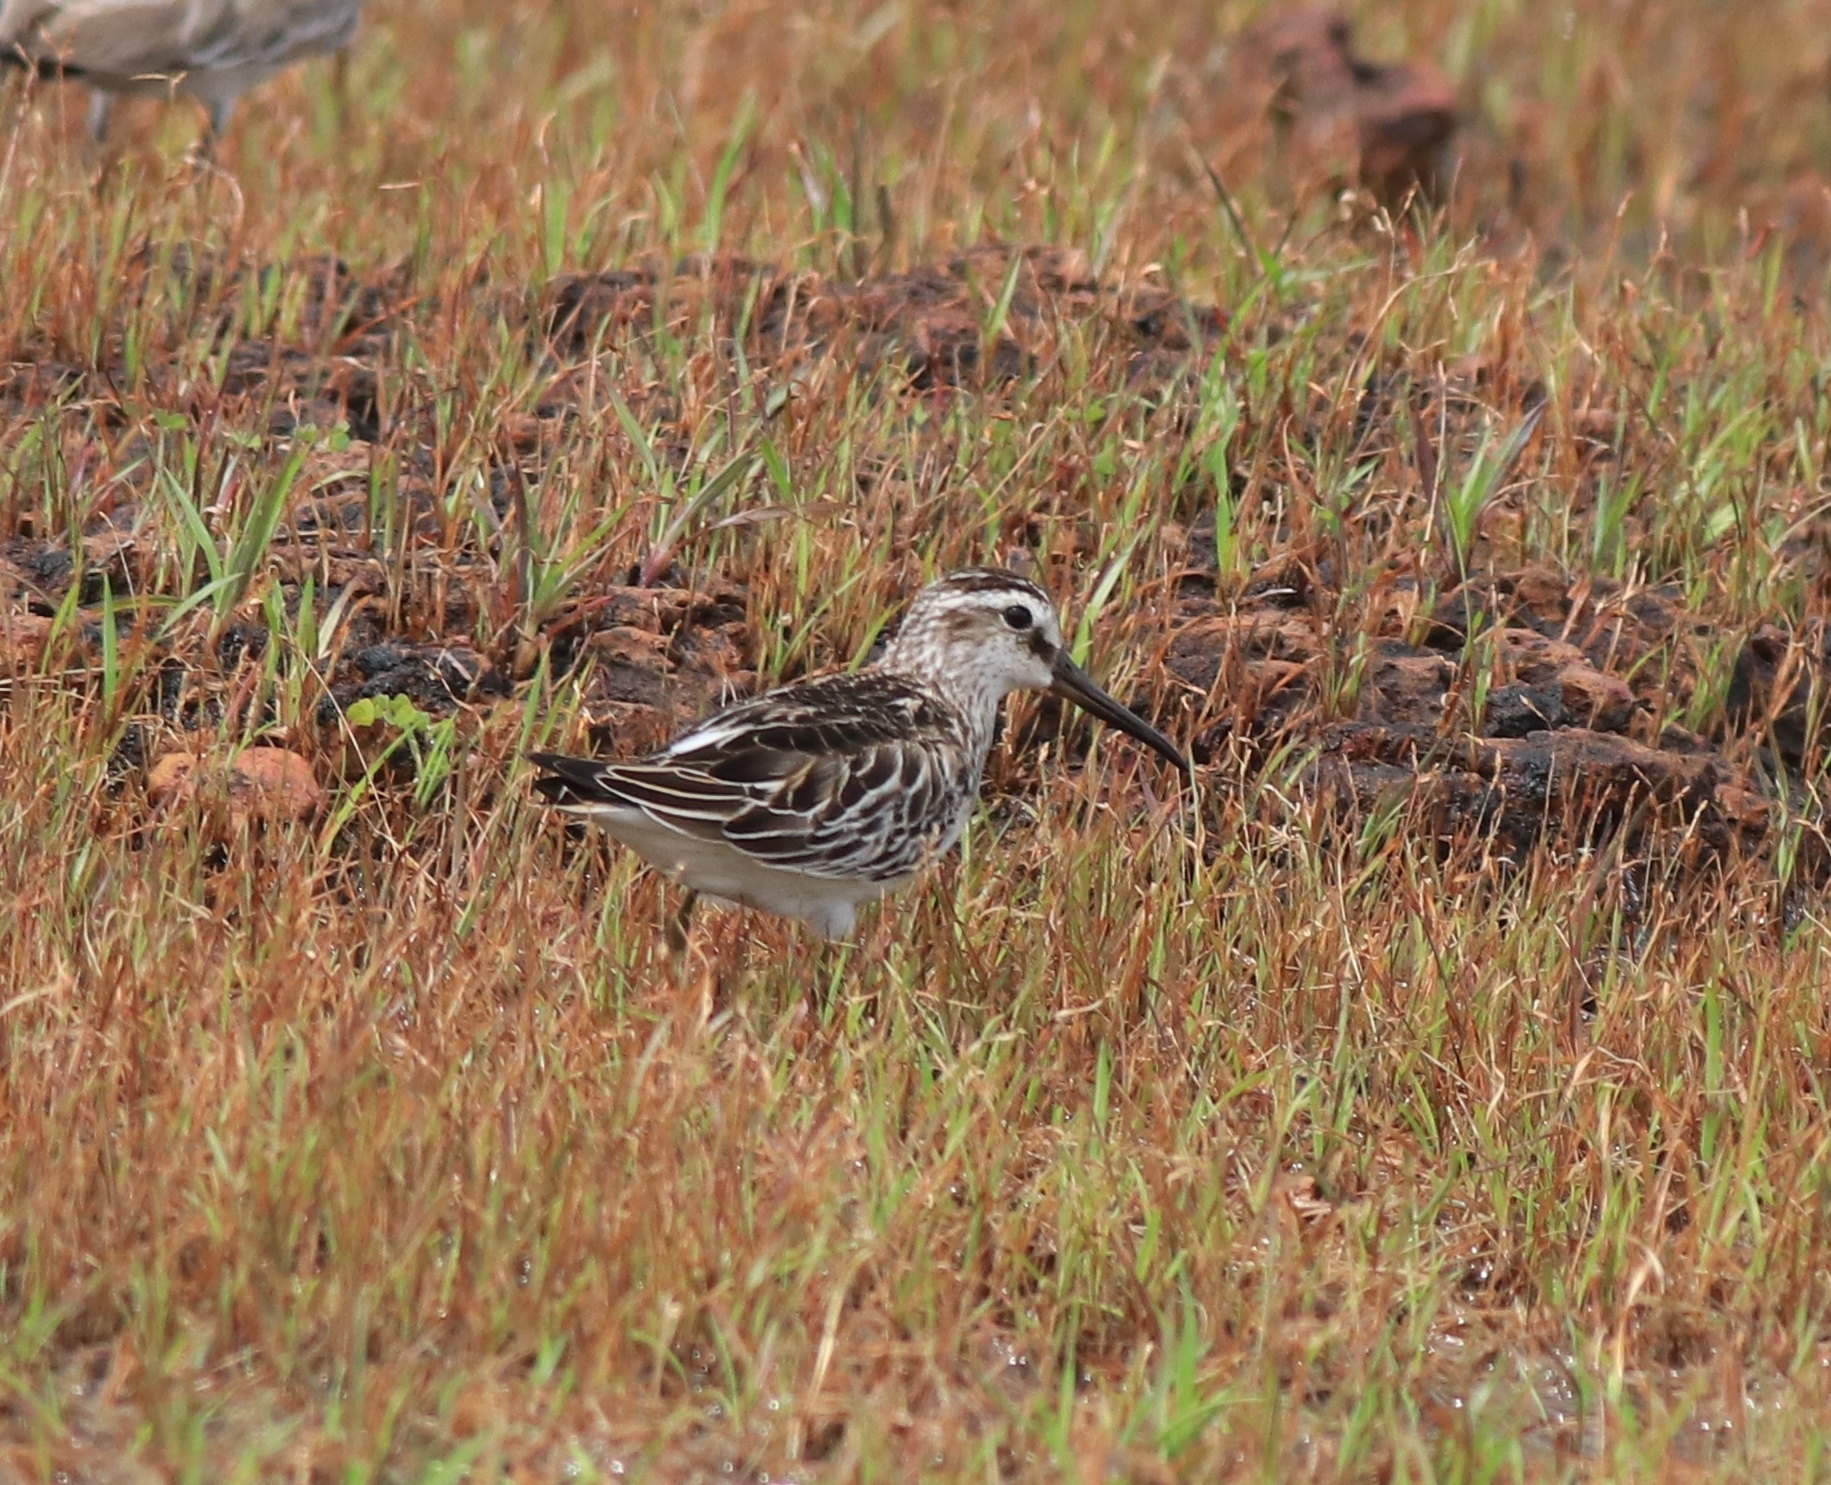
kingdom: Animalia
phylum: Chordata
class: Aves
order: Charadriiformes
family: Scolopacidae
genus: Calidris
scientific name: Calidris falcinellus
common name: Broad-billed sandpiper
